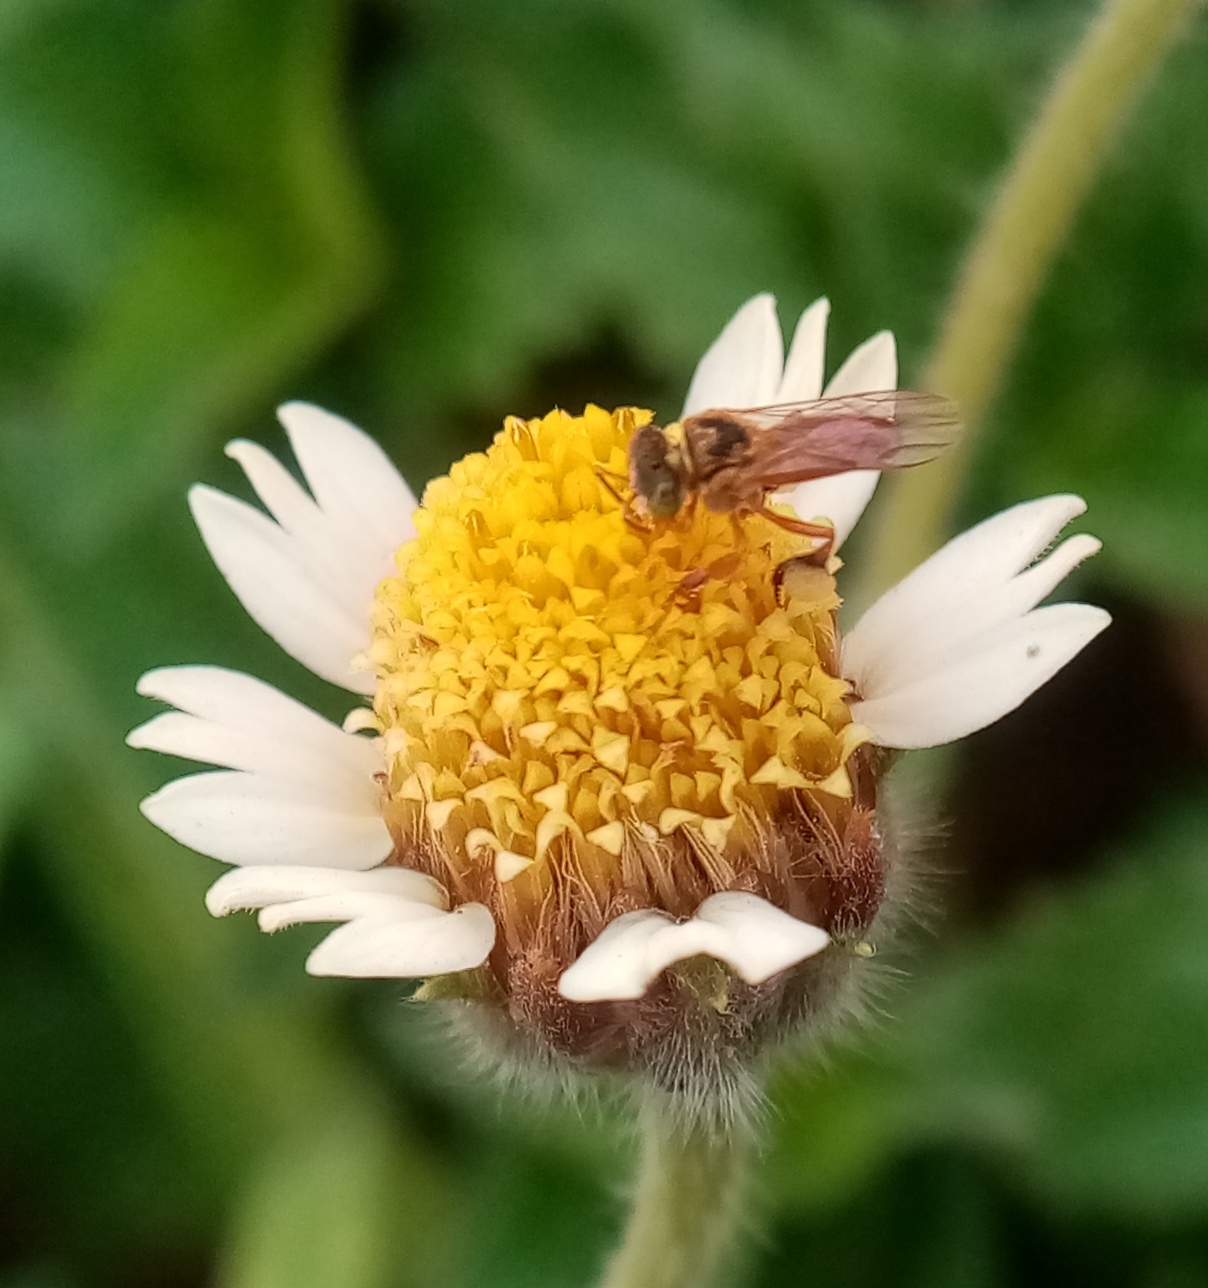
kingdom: Plantae
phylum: Tracheophyta
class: Magnoliopsida
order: Asterales
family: Asteraceae
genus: Tridax
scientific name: Tridax procumbens
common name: Coatbuttons
